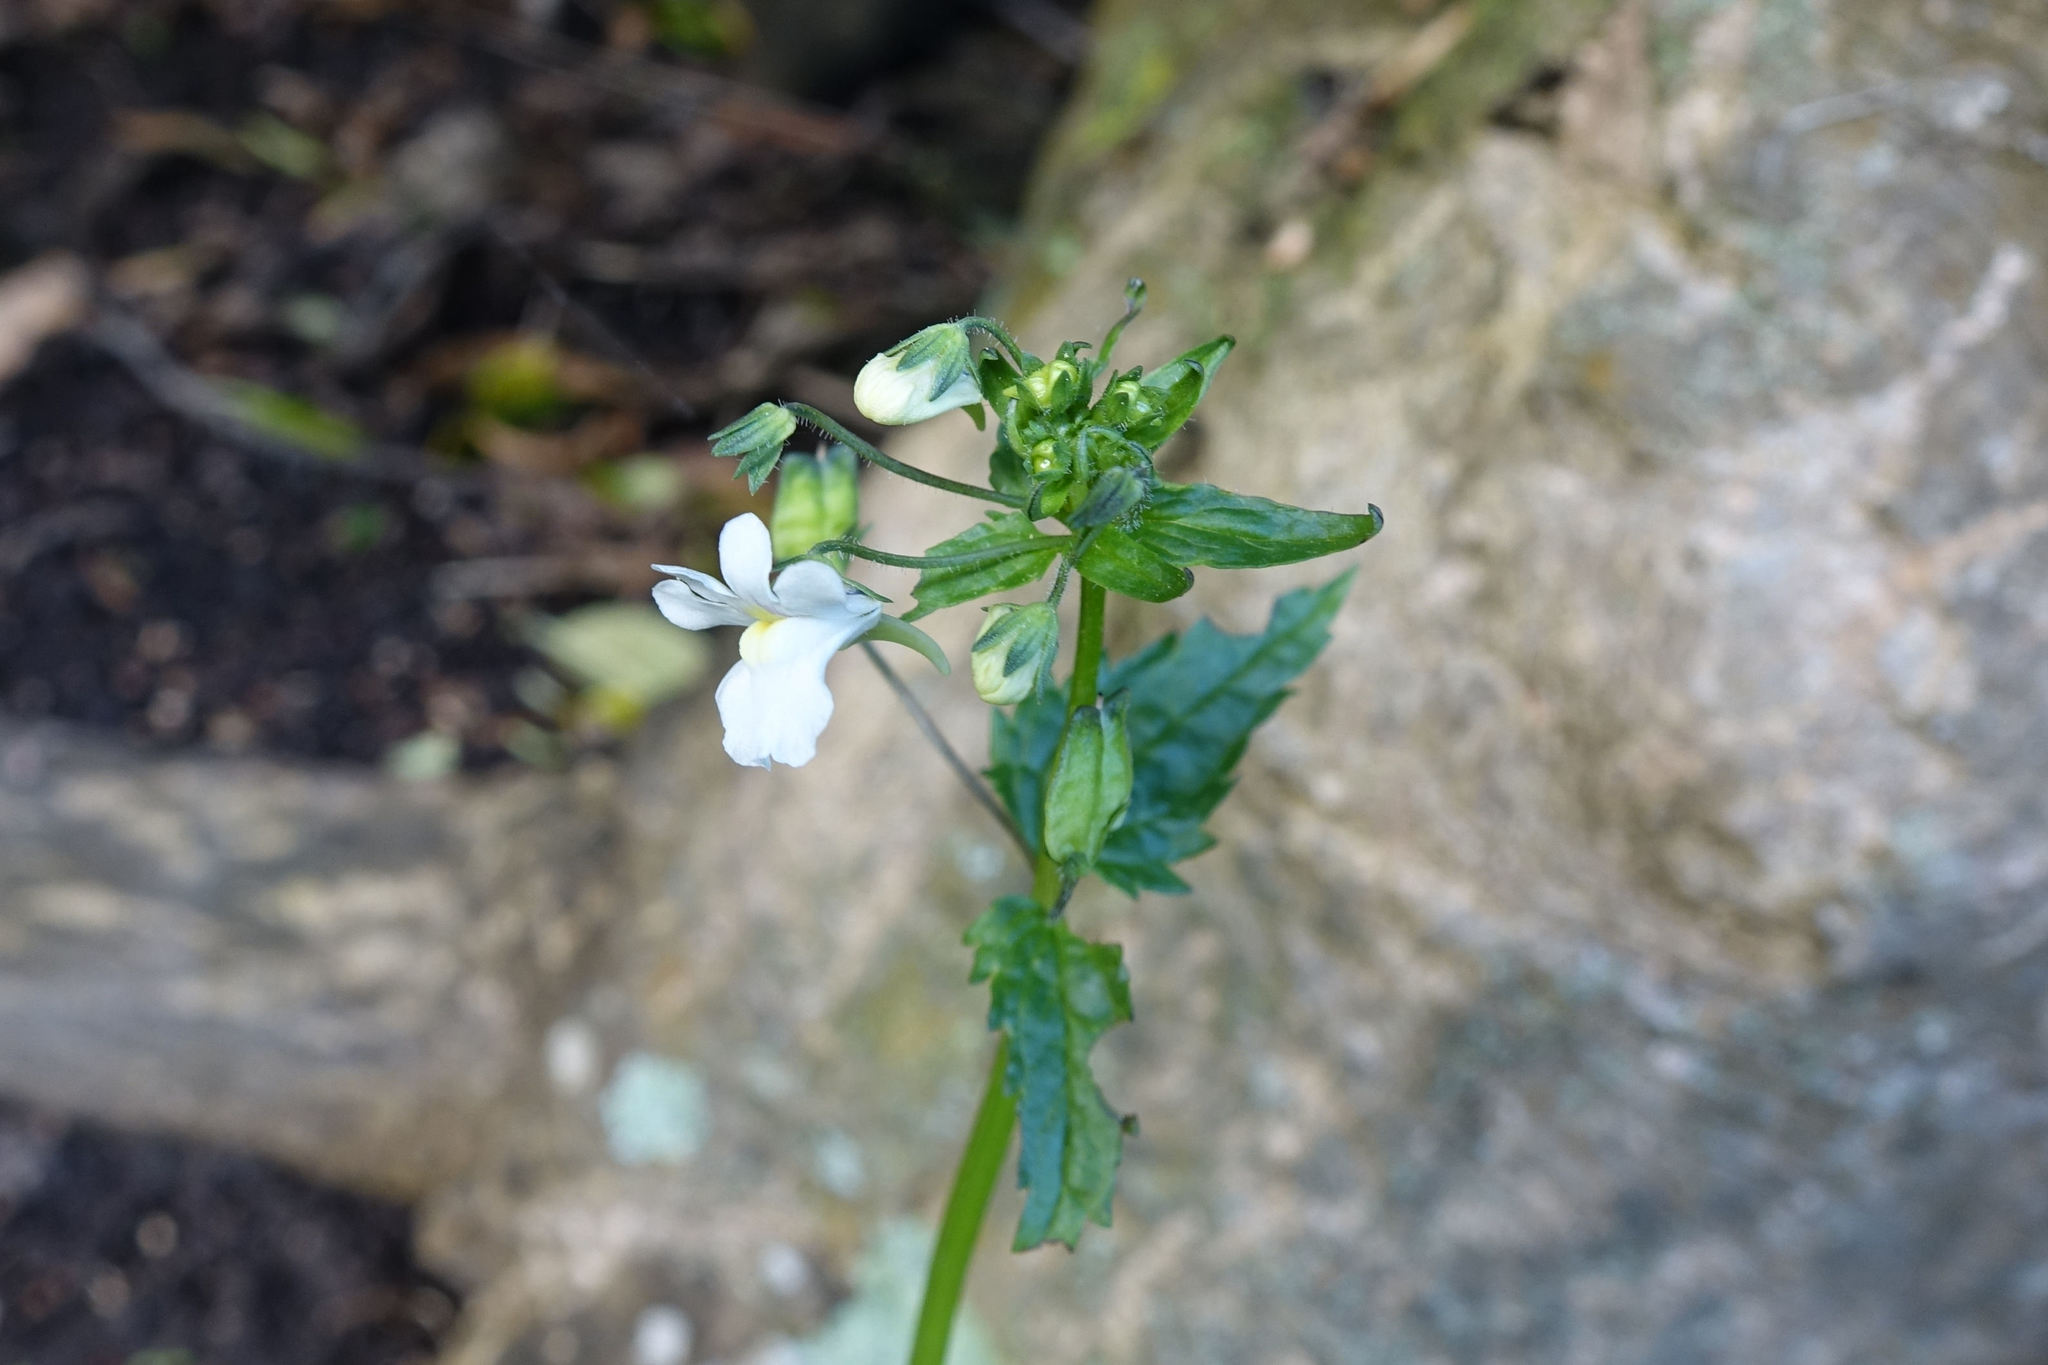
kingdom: Plantae
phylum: Tracheophyta
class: Magnoliopsida
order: Lamiales
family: Scrophulariaceae
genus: Nemesia
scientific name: Nemesia floribunda
